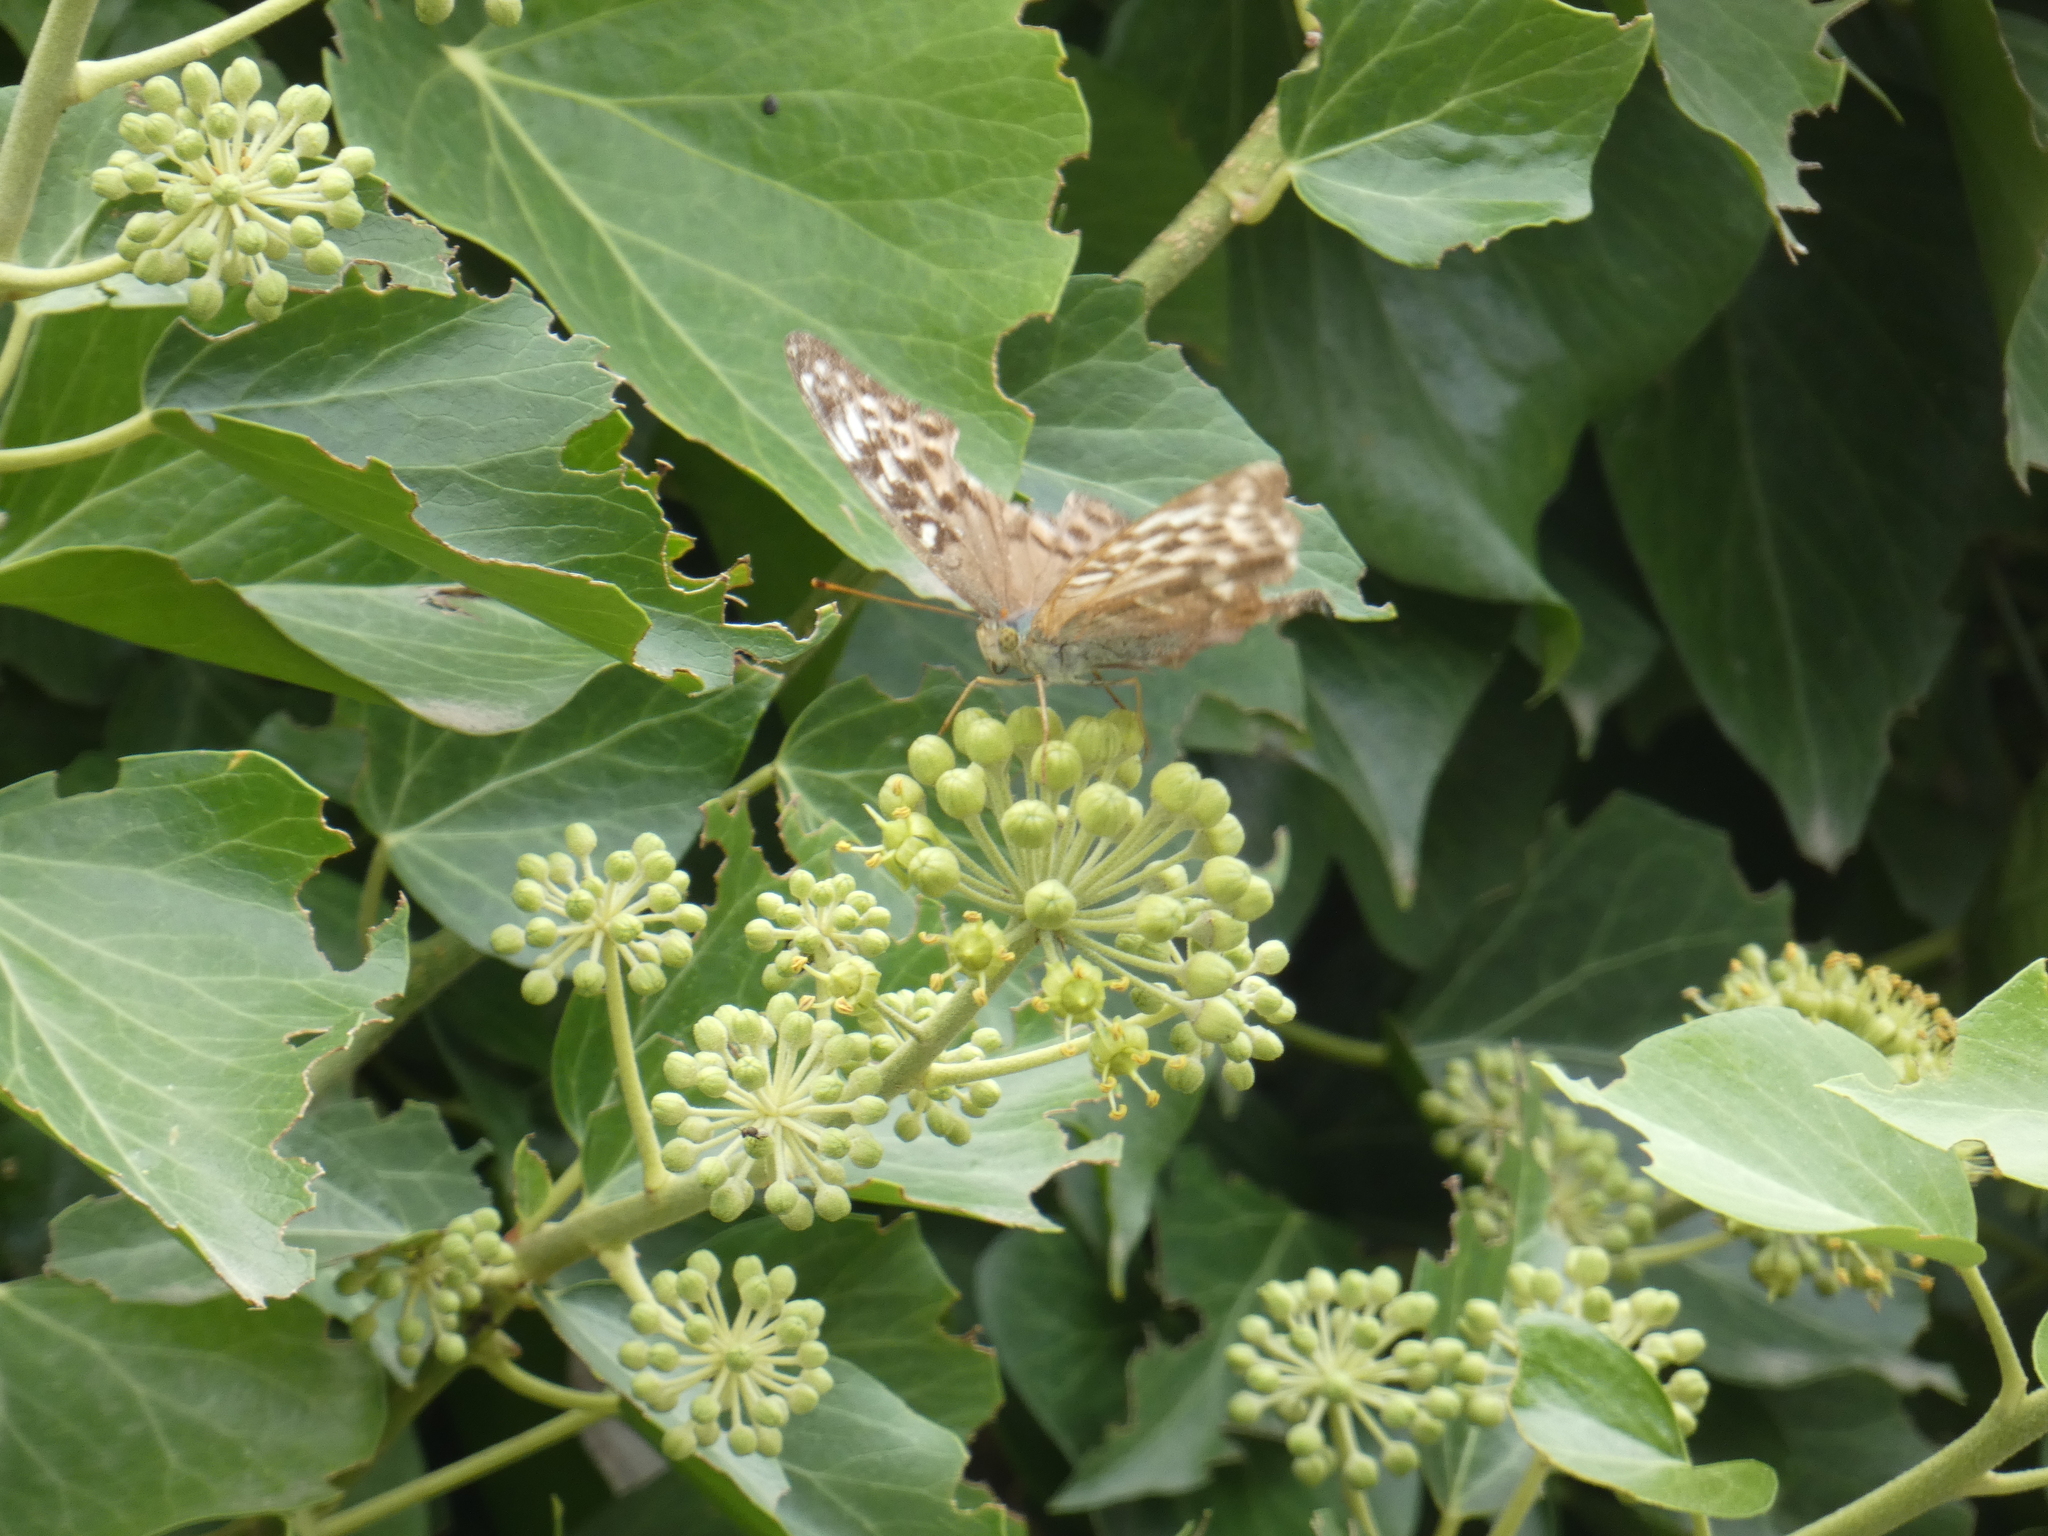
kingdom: Animalia
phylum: Arthropoda
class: Insecta
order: Lepidoptera
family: Nymphalidae
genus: Argynnis
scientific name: Argynnis paphia
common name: Silver-washed fritillary
